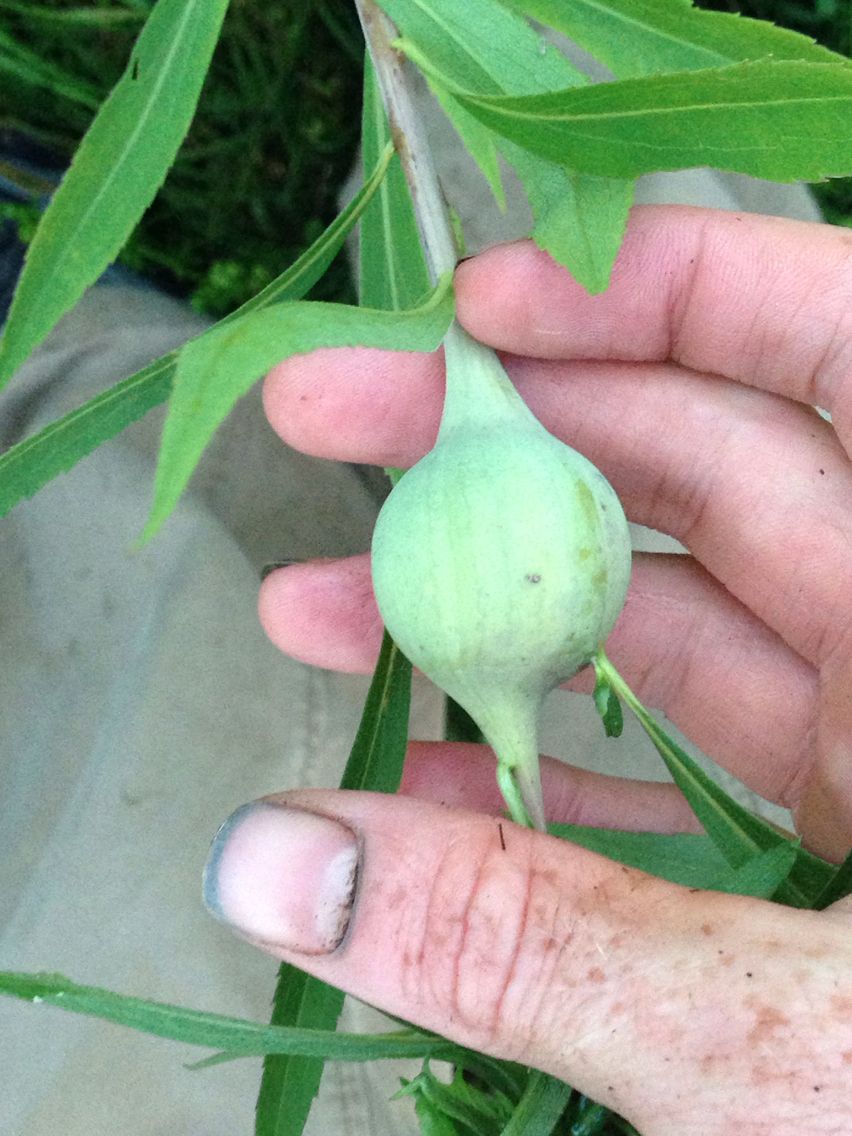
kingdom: Animalia
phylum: Arthropoda
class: Insecta
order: Diptera
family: Tephritidae
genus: Eurosta
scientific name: Eurosta solidaginis
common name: Goldenrod gall fly
